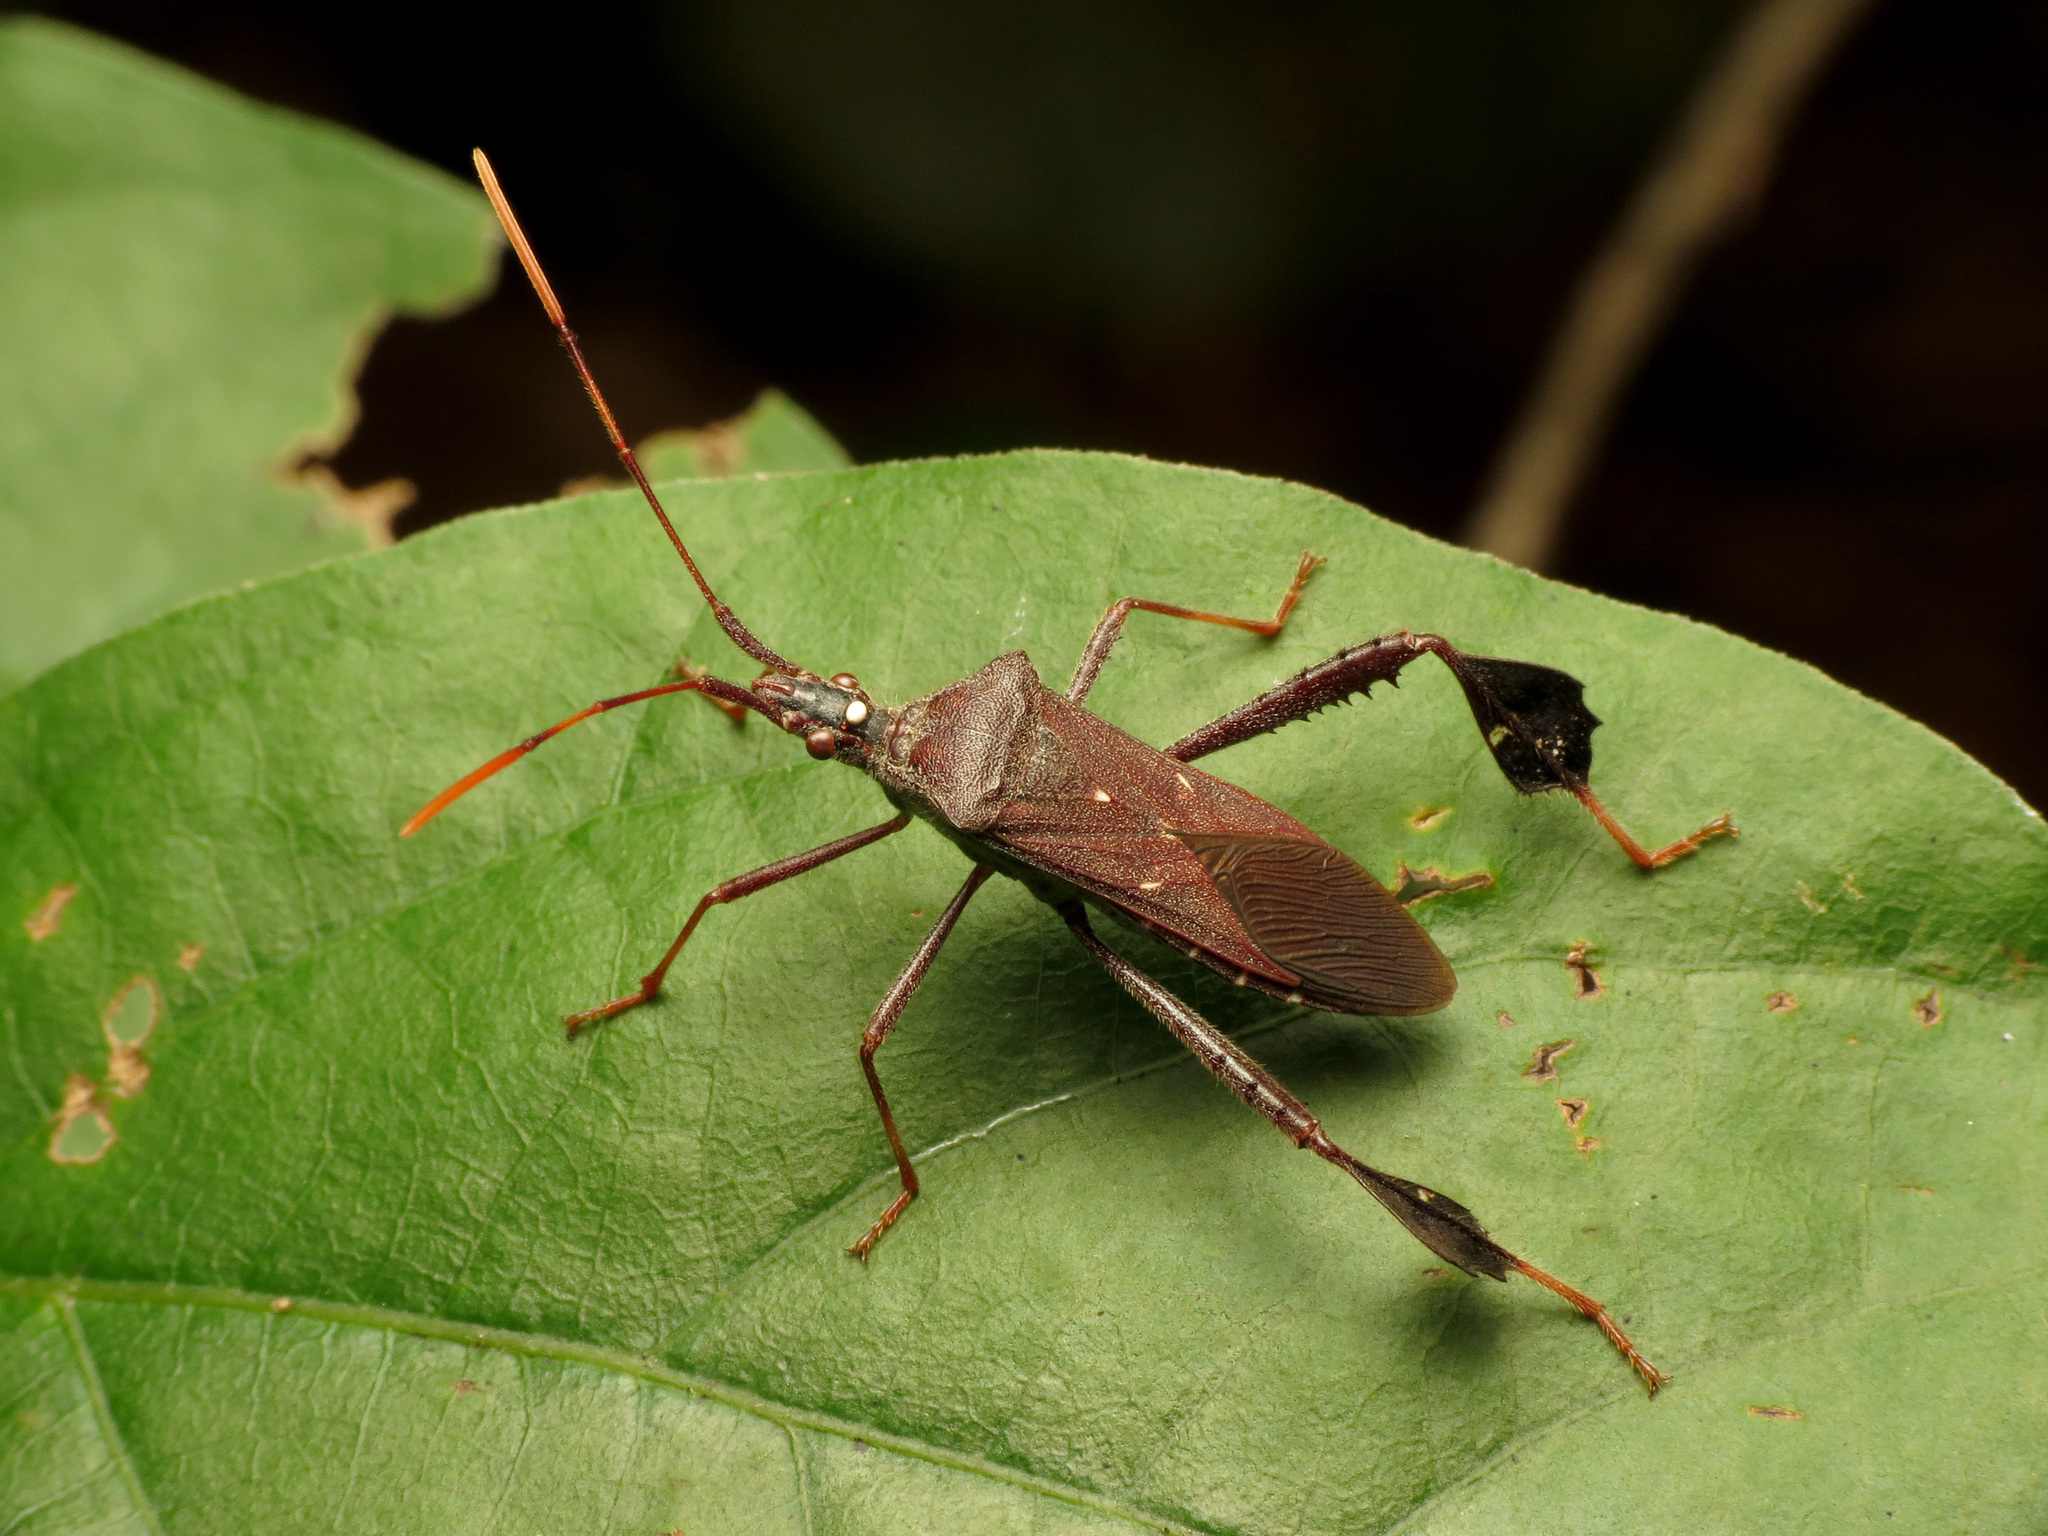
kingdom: Animalia
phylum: Arthropoda
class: Insecta
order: Hemiptera
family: Coreidae
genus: Leptoglossus
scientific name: Leptoglossus oppositus
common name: Northern leaf-footed bug
